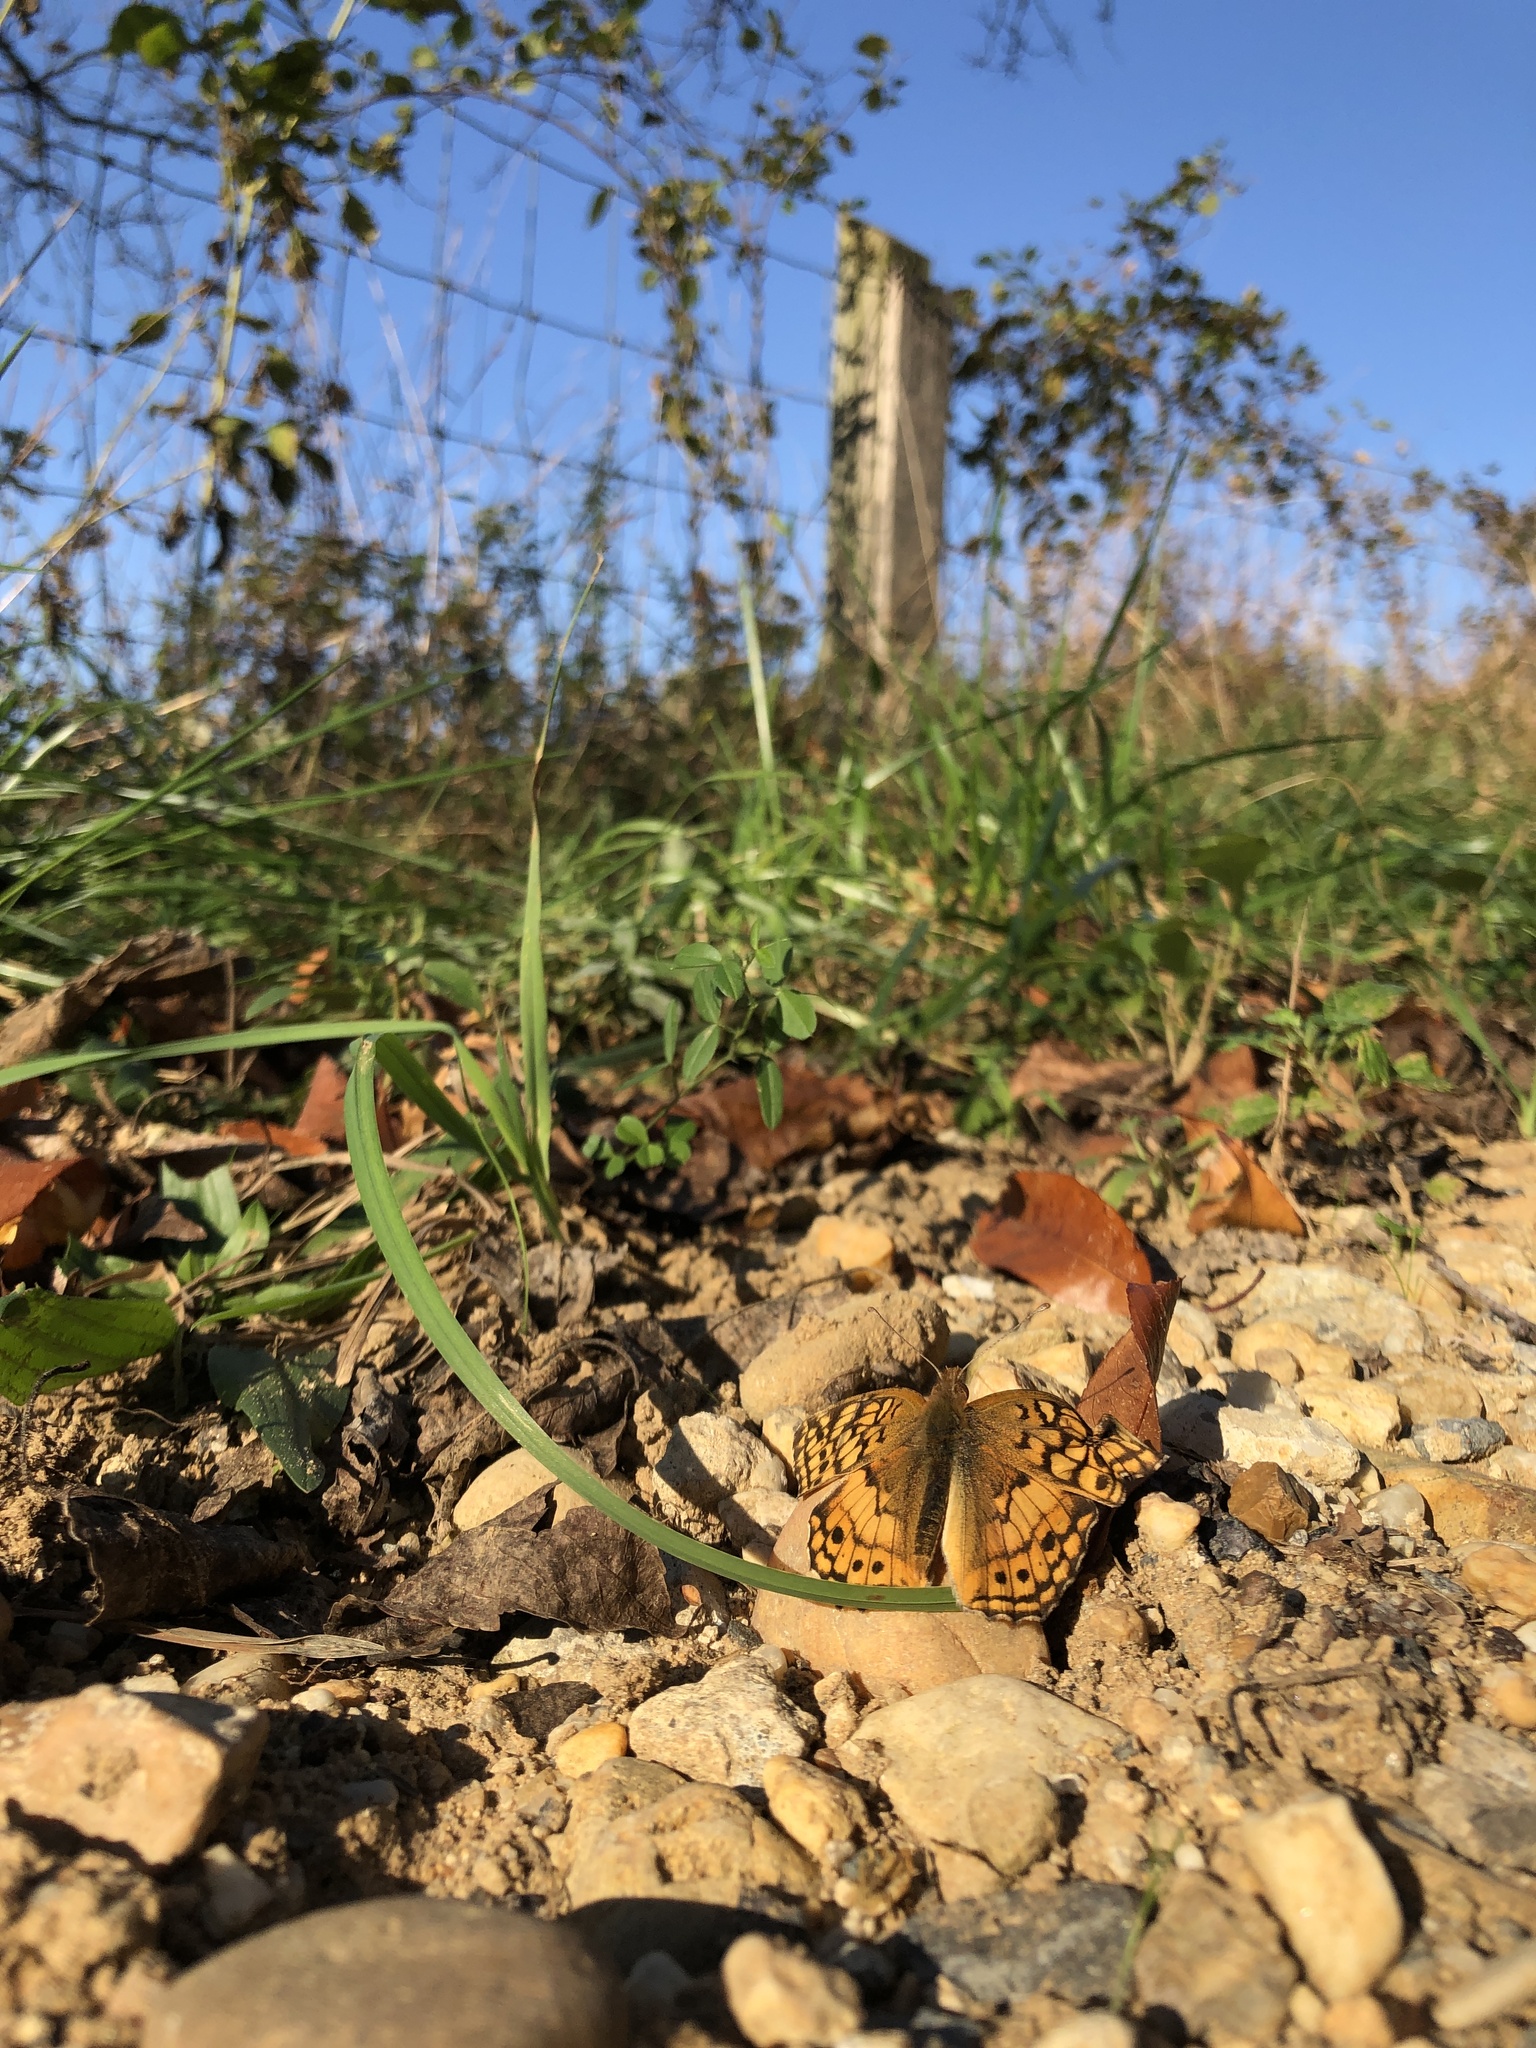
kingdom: Animalia
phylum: Arthropoda
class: Insecta
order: Lepidoptera
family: Nymphalidae
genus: Euptoieta
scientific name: Euptoieta claudia
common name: Variegated fritillary
